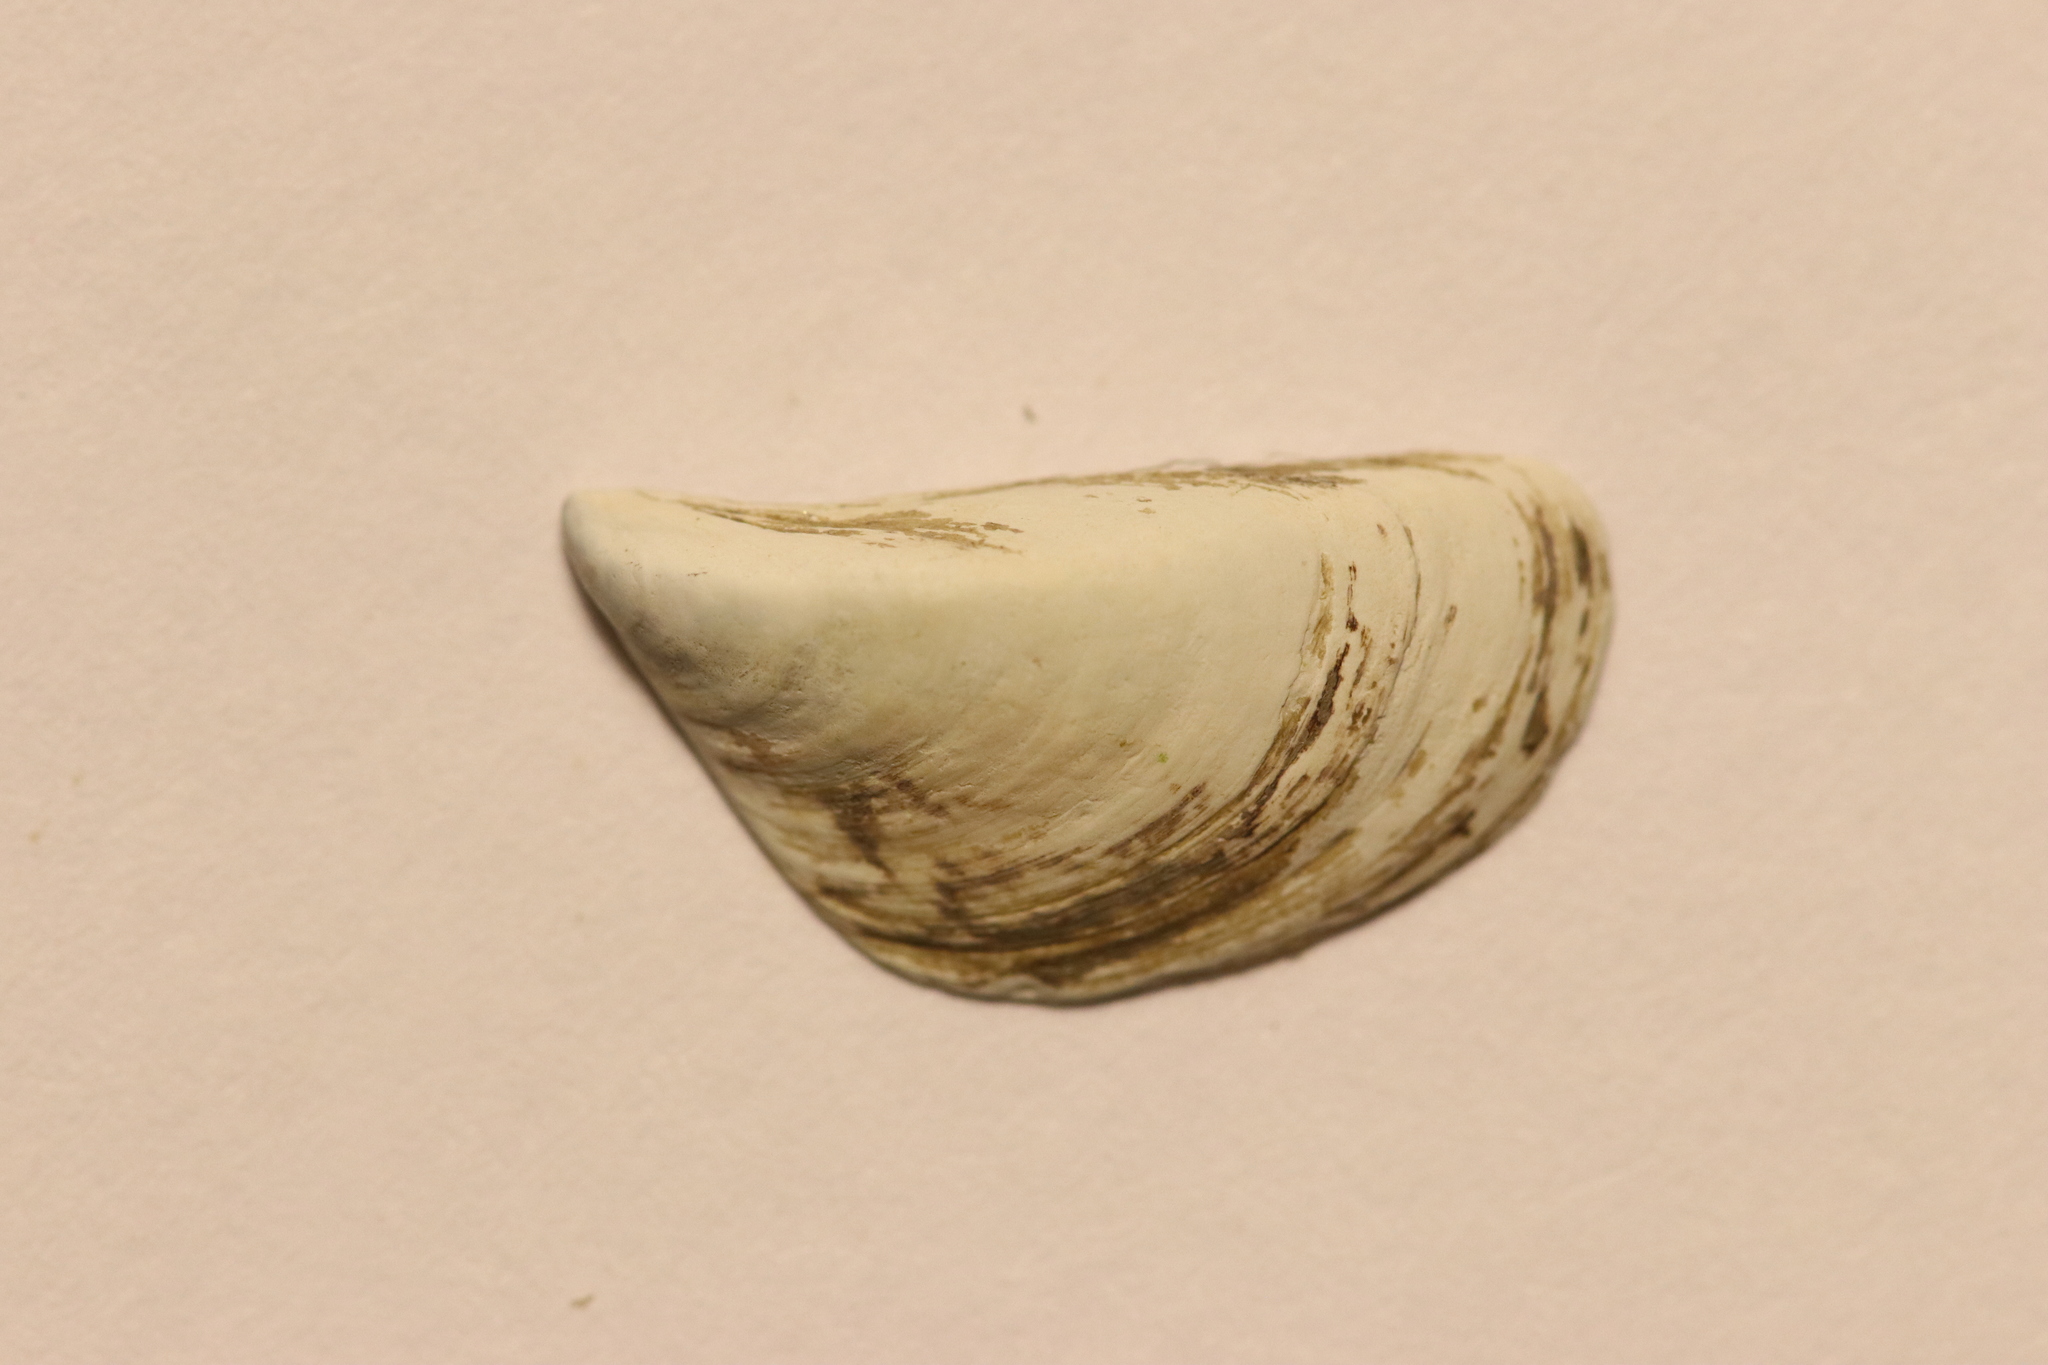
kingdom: Animalia
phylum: Mollusca
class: Bivalvia
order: Myida
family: Dreissenidae
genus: Dreissena
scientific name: Dreissena polymorpha
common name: Zebra mussel
